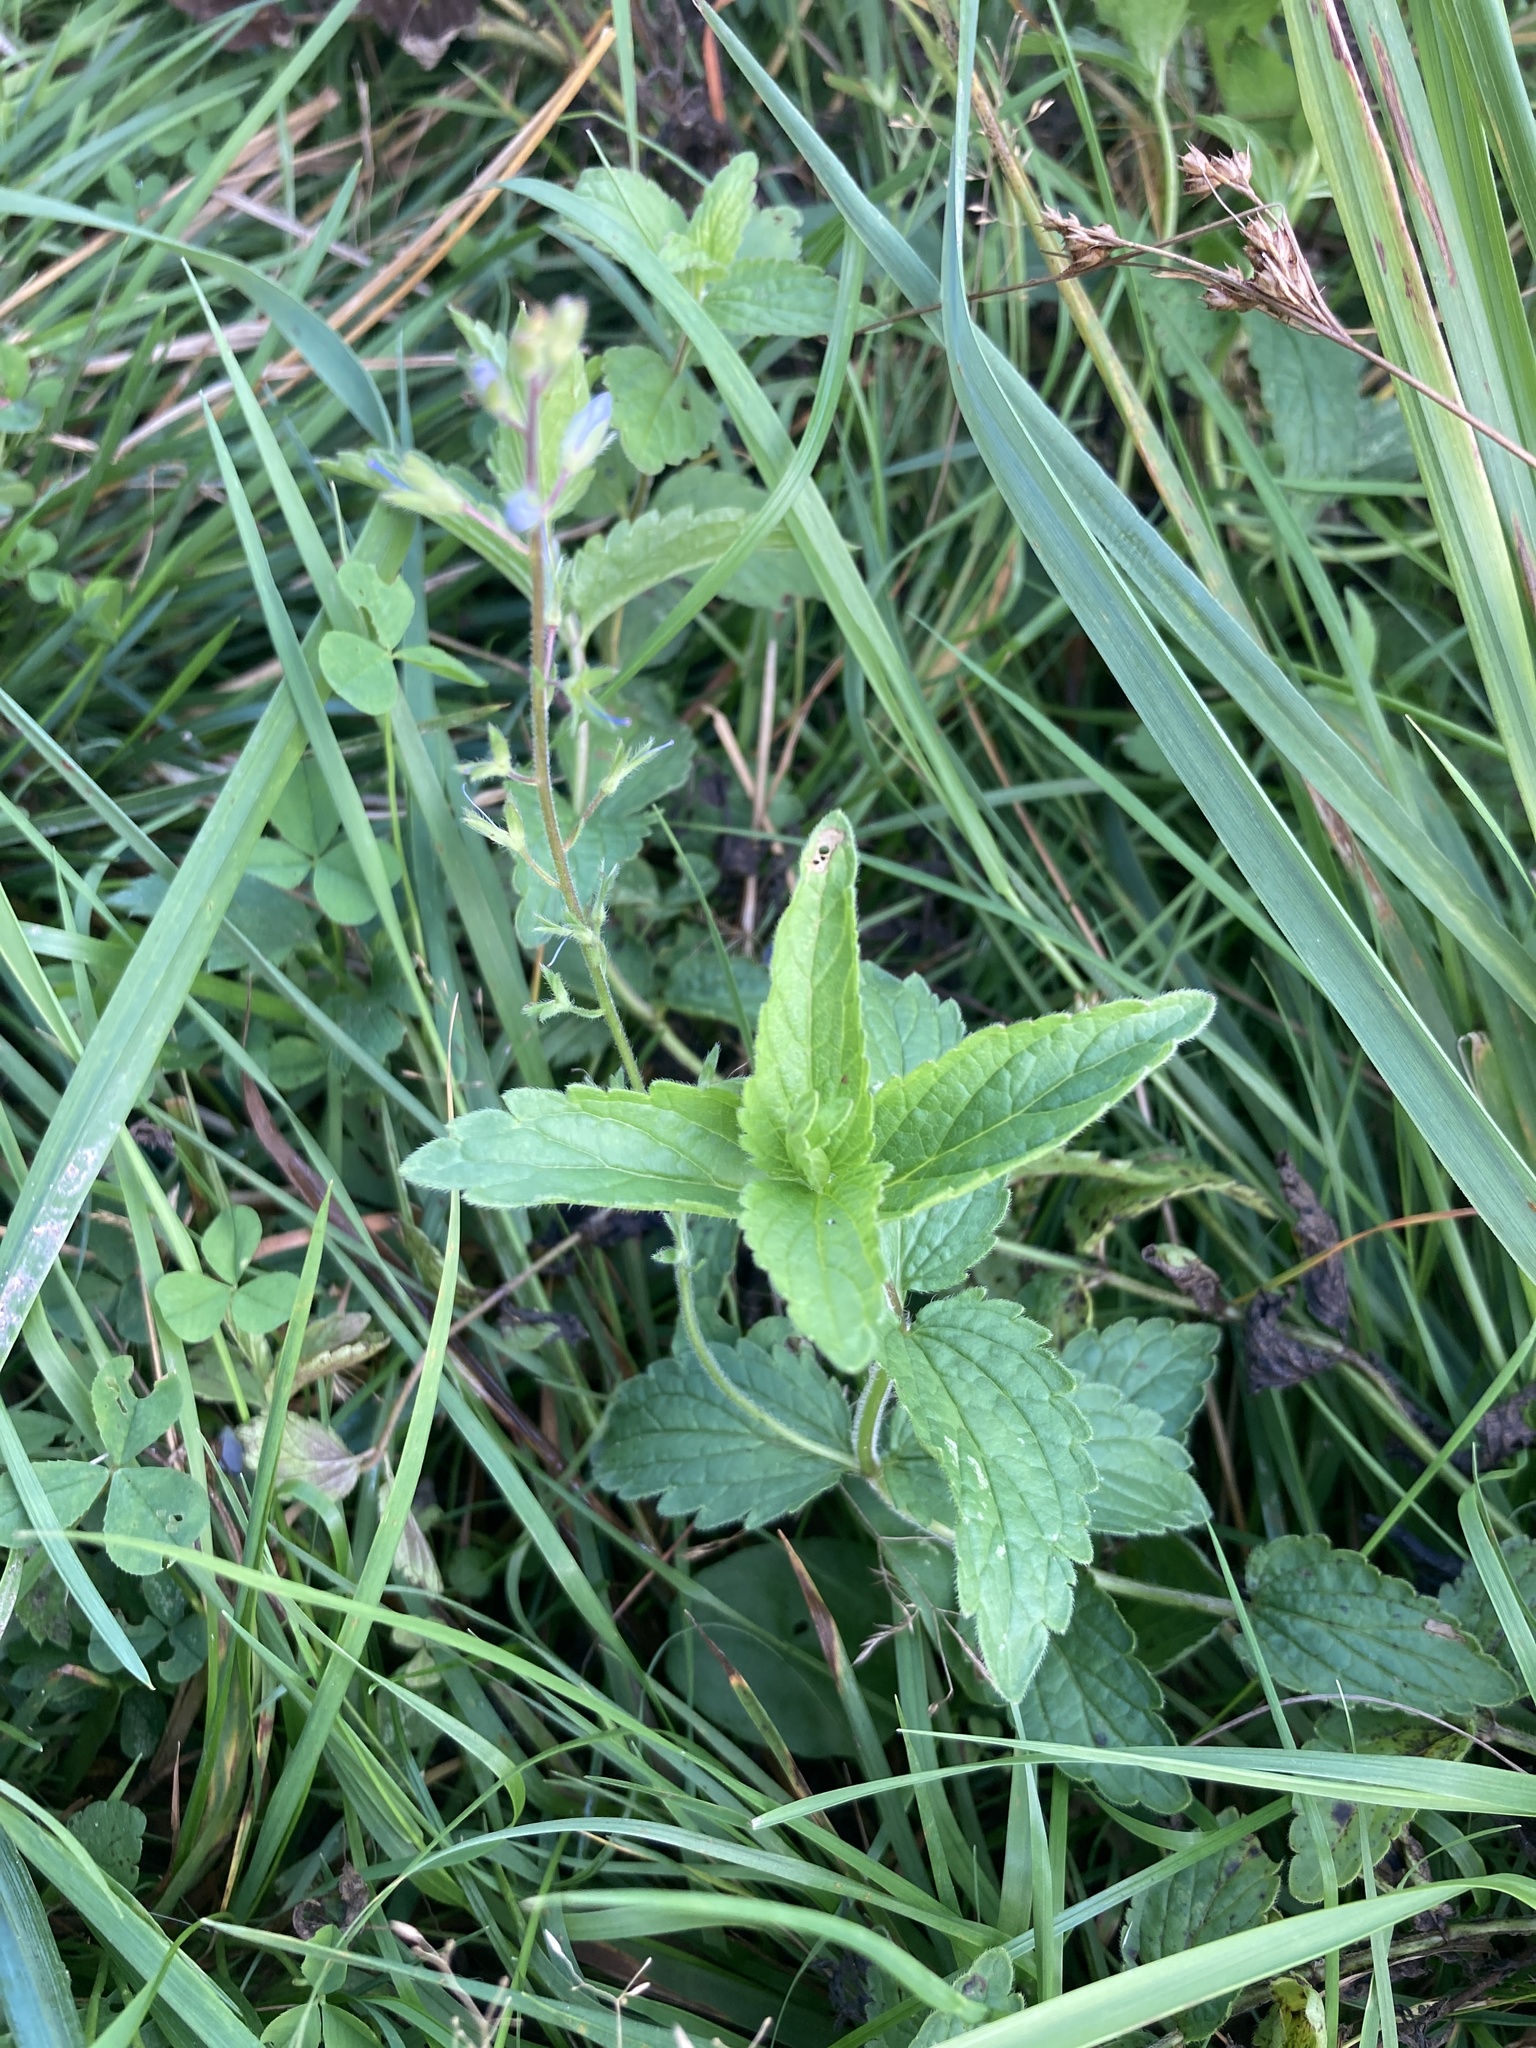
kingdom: Plantae
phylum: Tracheophyta
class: Magnoliopsida
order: Lamiales
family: Plantaginaceae
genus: Veronica
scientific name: Veronica chamaedrys
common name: Germander speedwell
